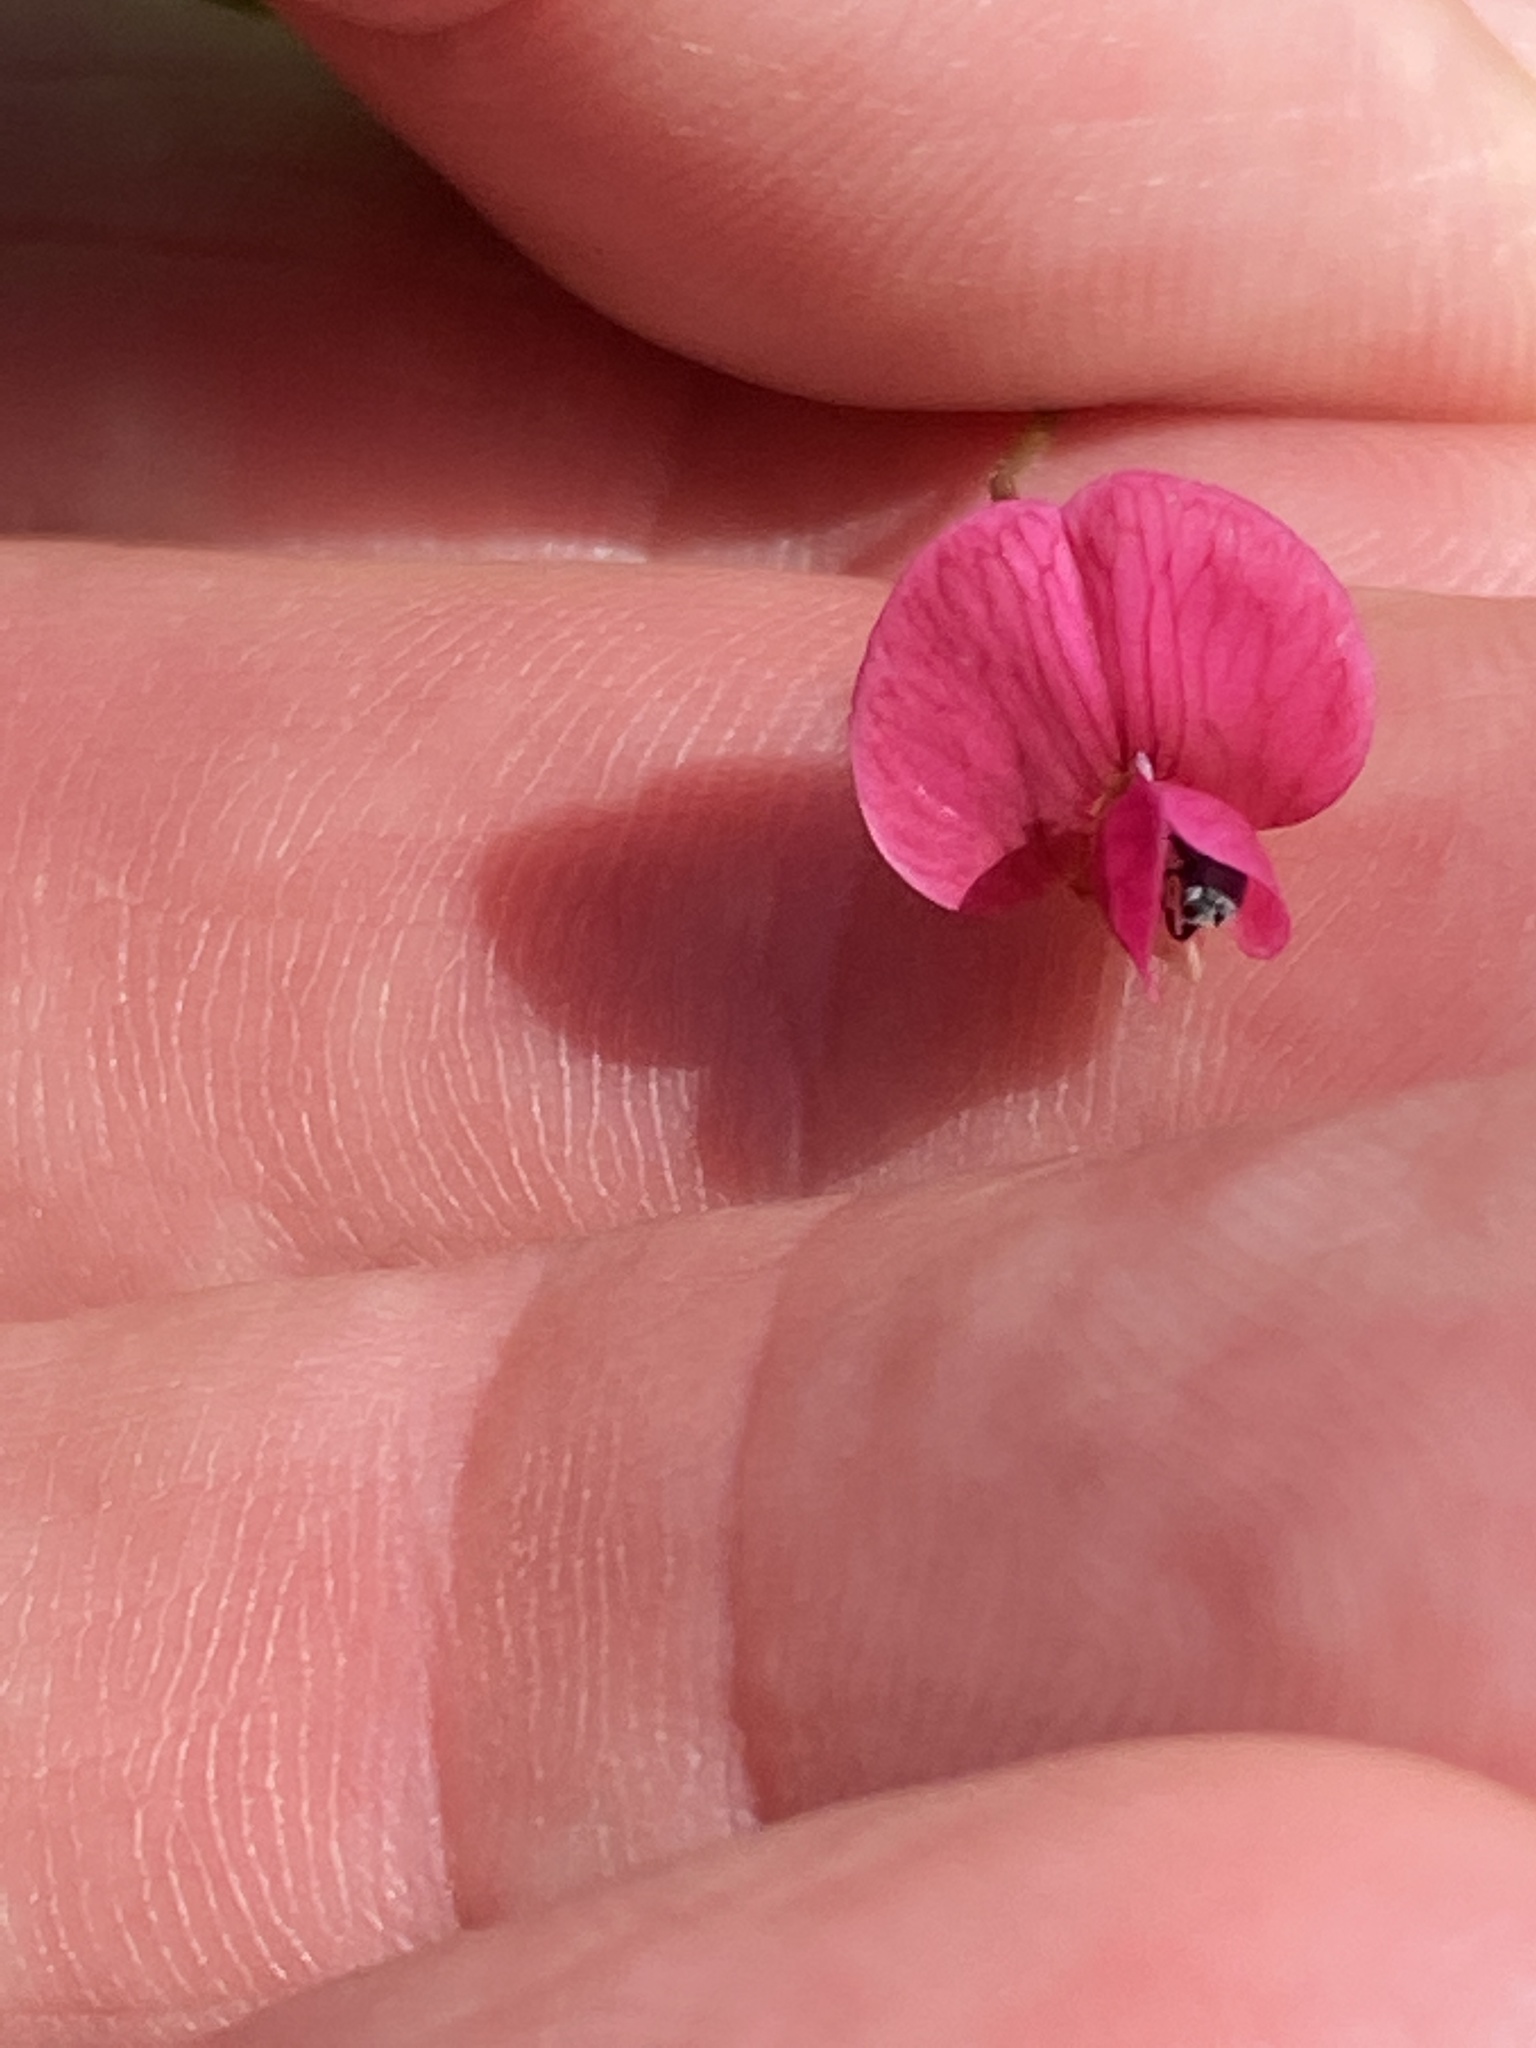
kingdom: Plantae
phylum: Tracheophyta
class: Magnoliopsida
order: Fabales
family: Fabaceae
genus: Lathyrus
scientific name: Lathyrus nissolia
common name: Grass vetchling
